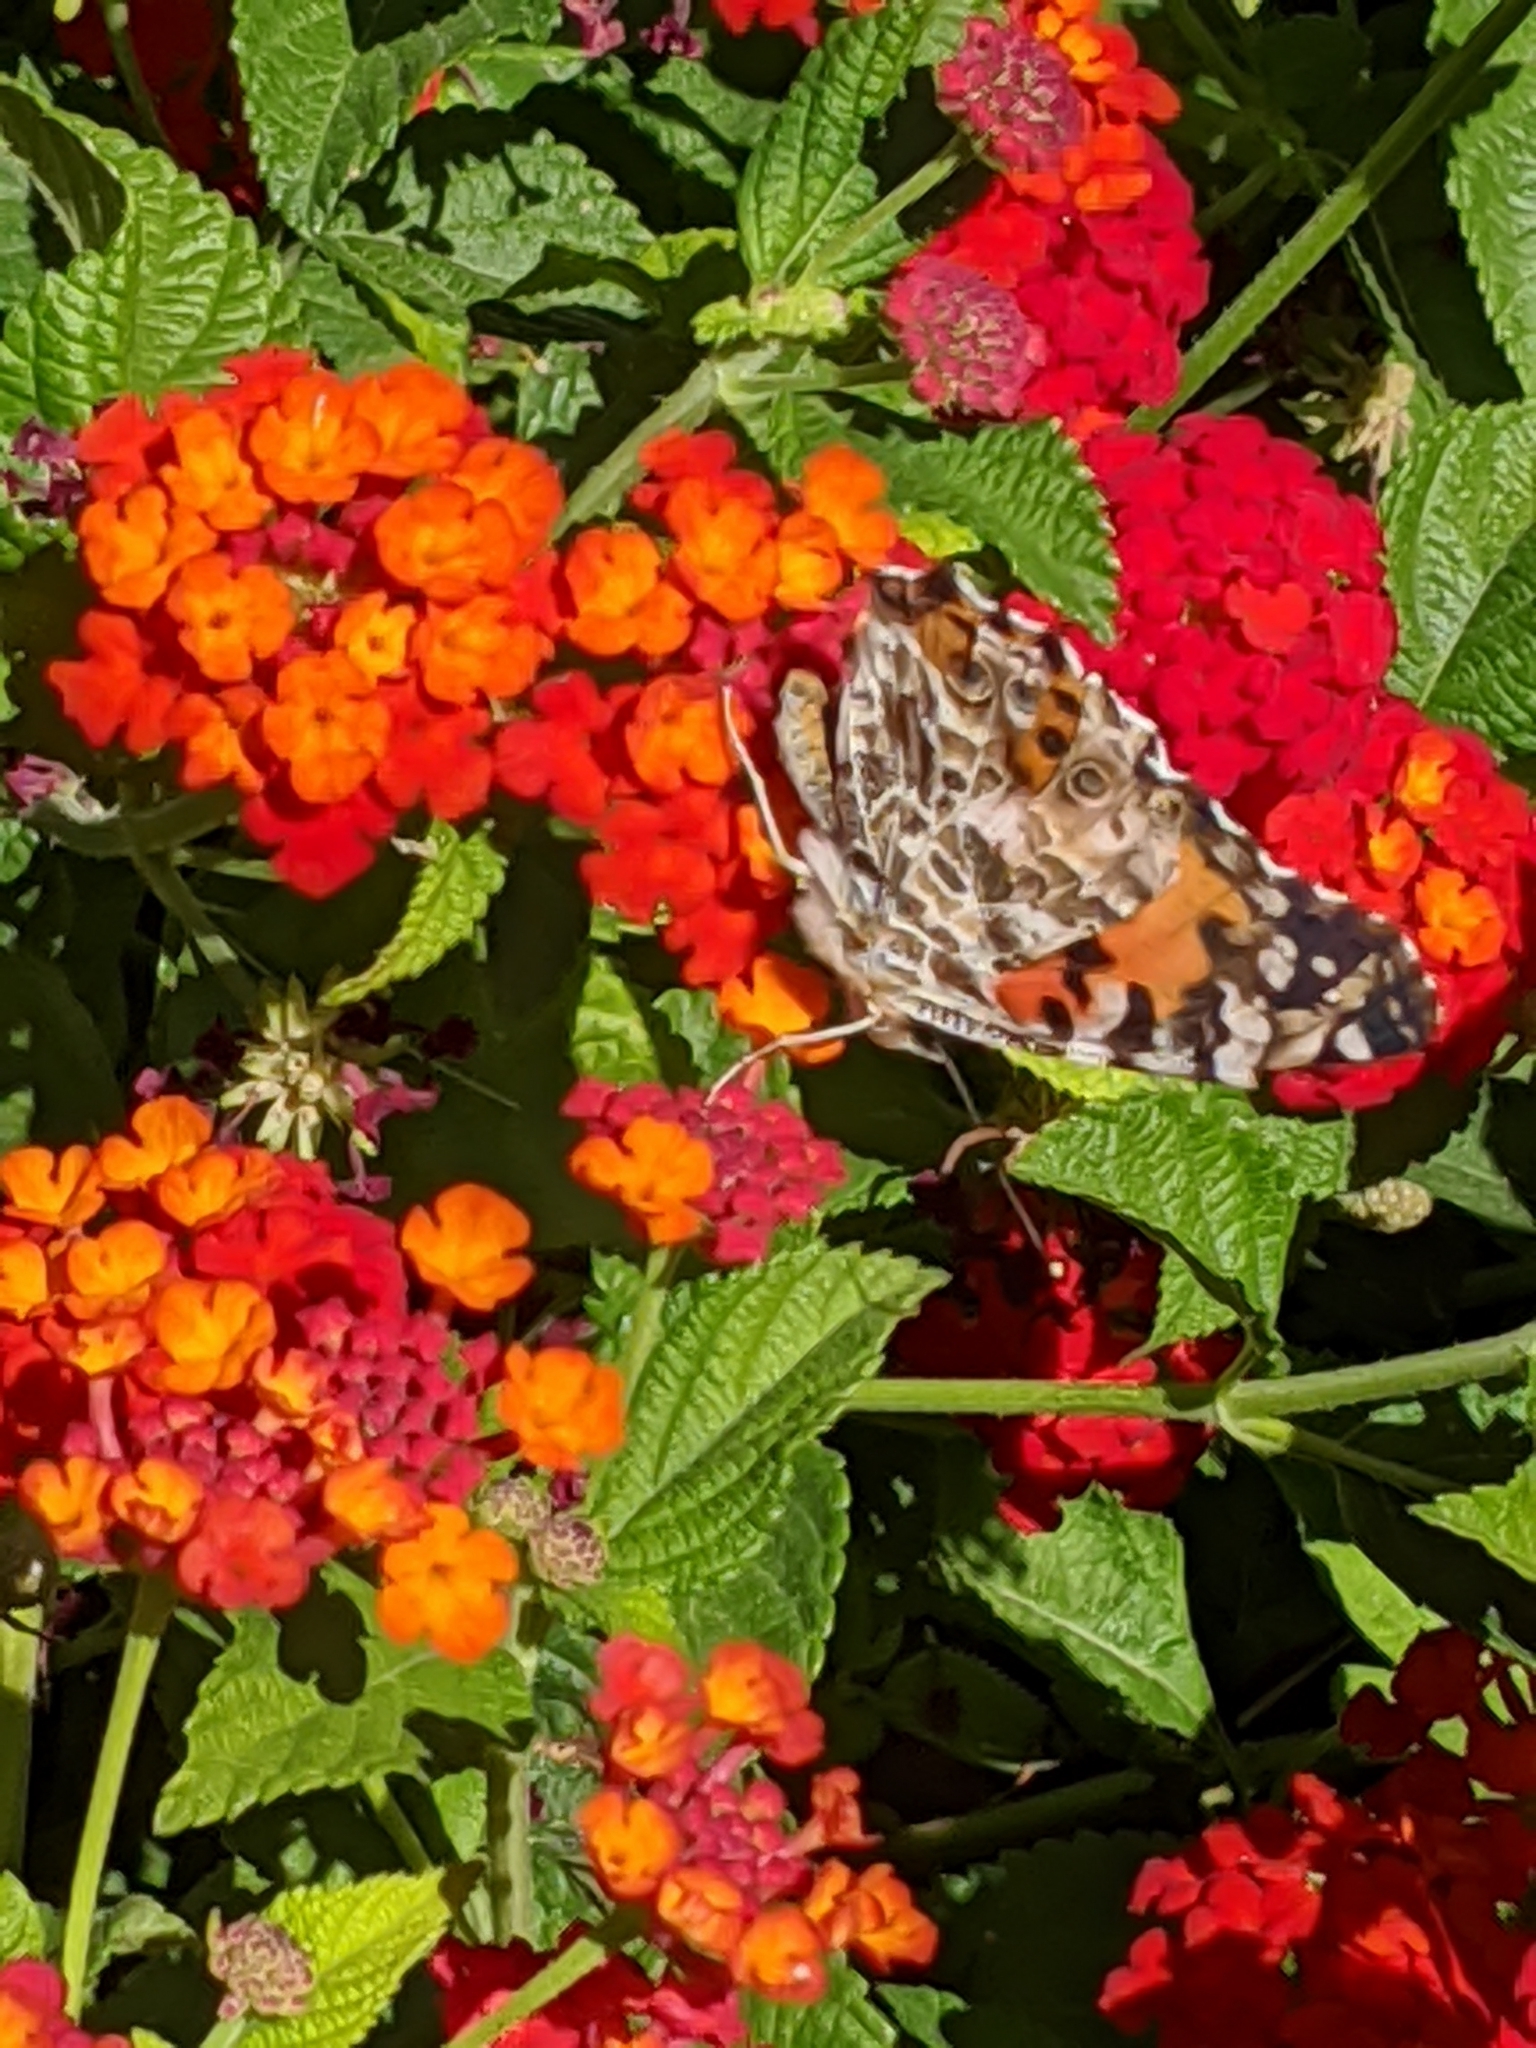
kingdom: Animalia
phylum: Arthropoda
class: Insecta
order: Lepidoptera
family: Nymphalidae
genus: Vanessa
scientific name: Vanessa cardui
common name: Painted lady
